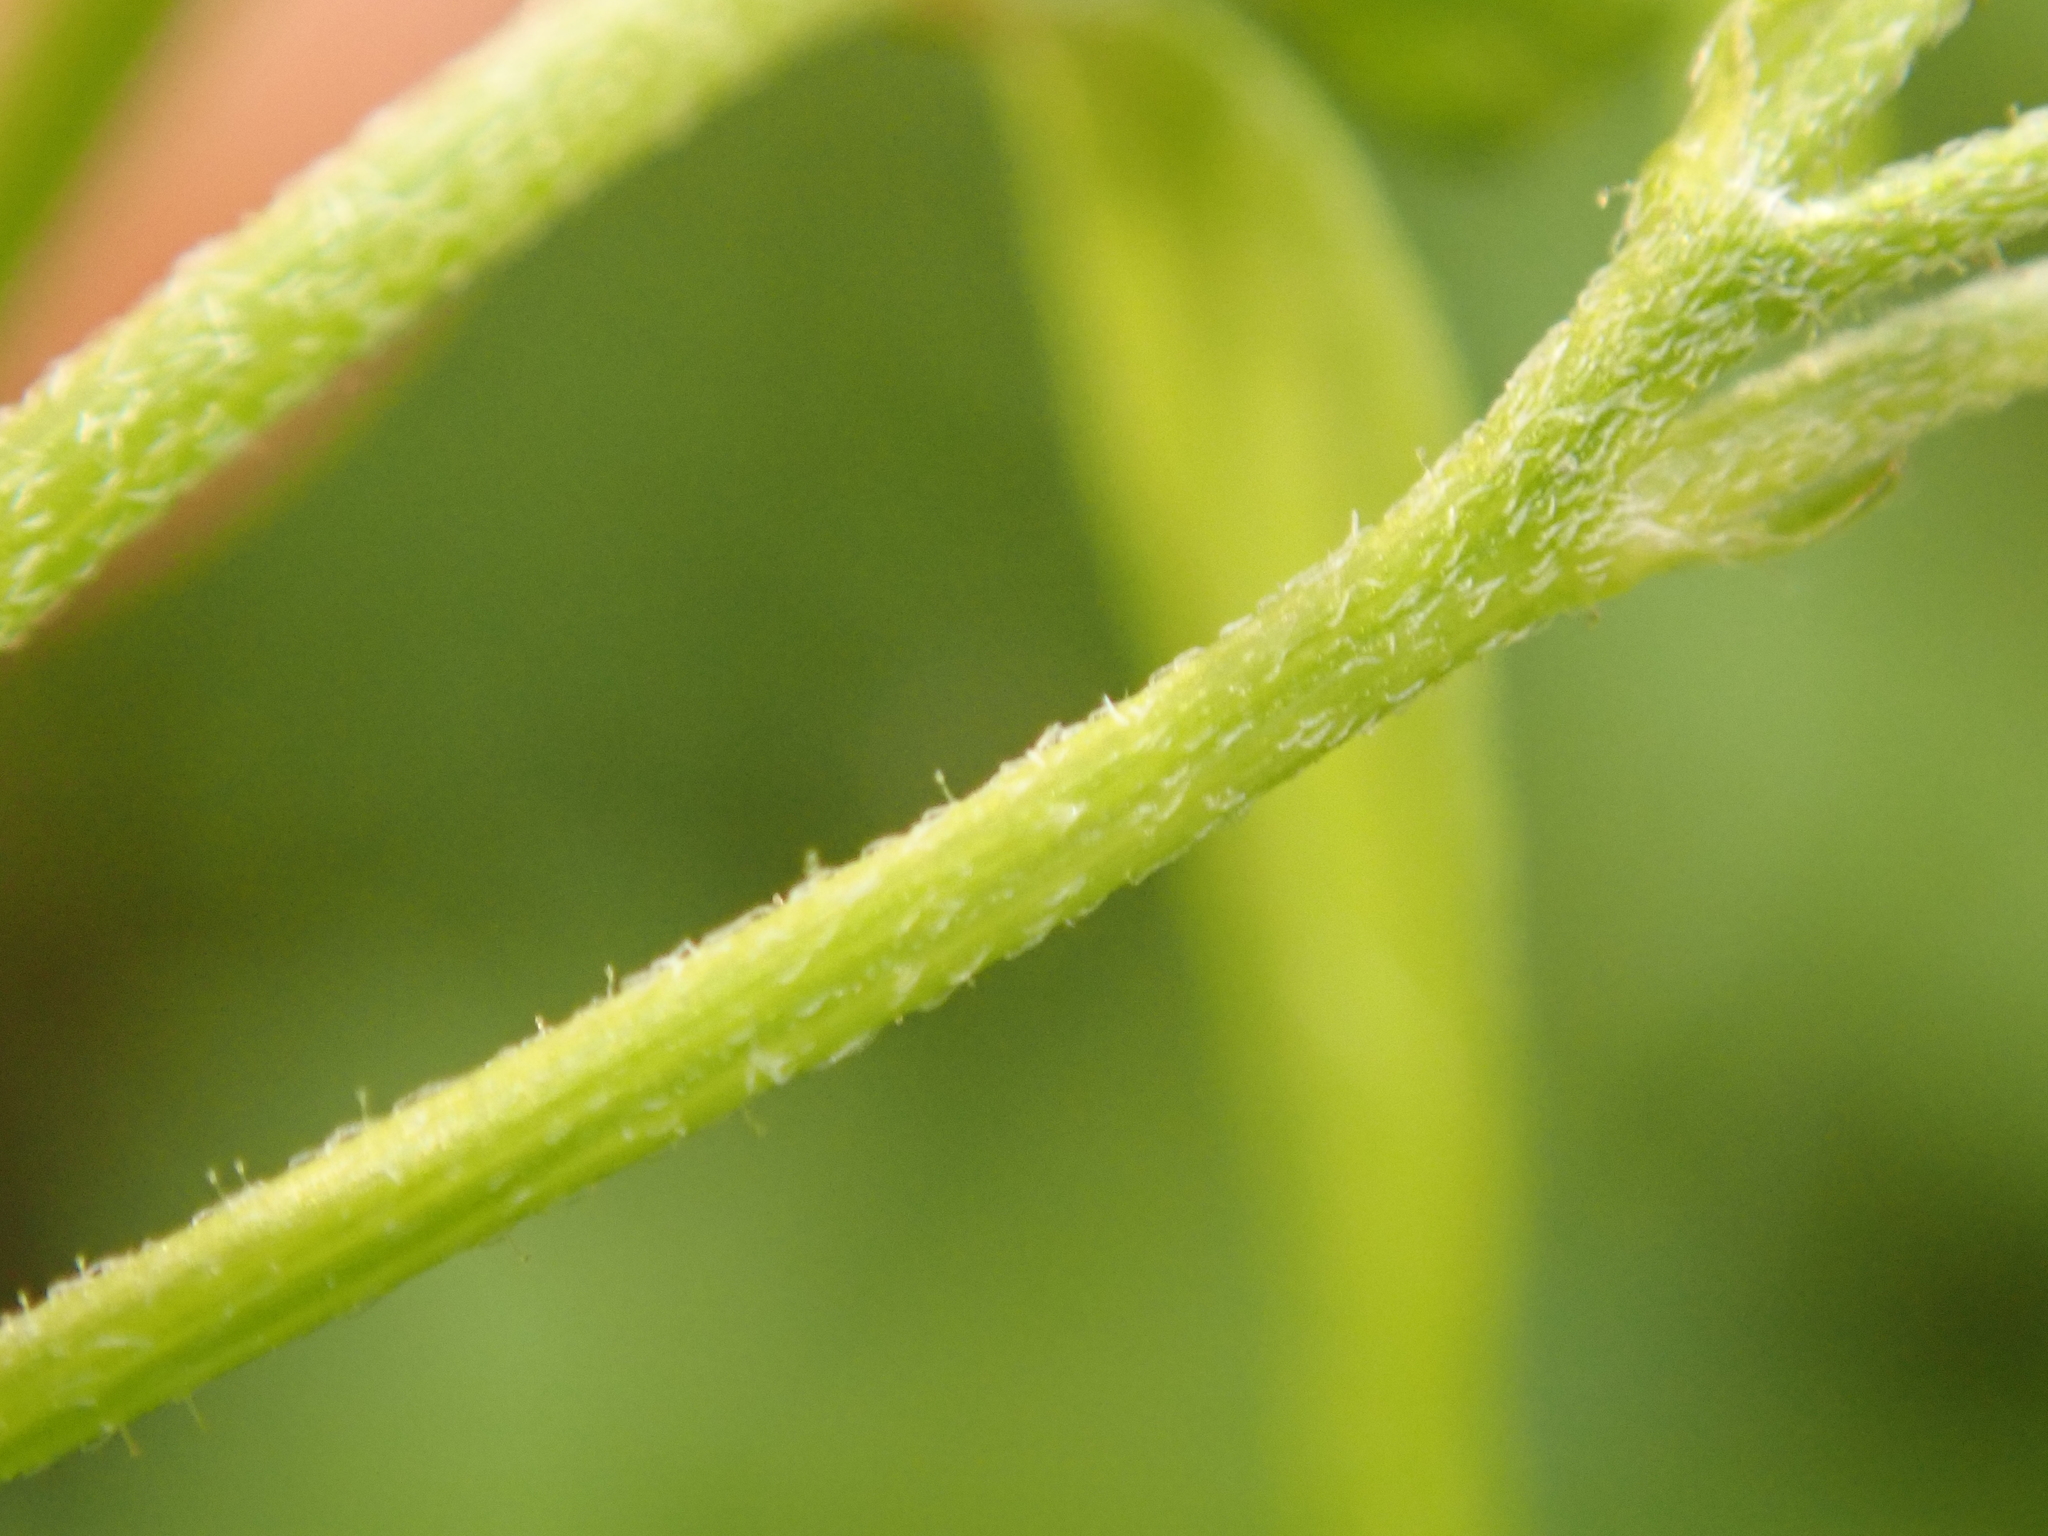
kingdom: Plantae
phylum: Tracheophyta
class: Magnoliopsida
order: Asterales
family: Asteraceae
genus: Galinsoga
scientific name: Galinsoga parviflora
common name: Gallant soldier
